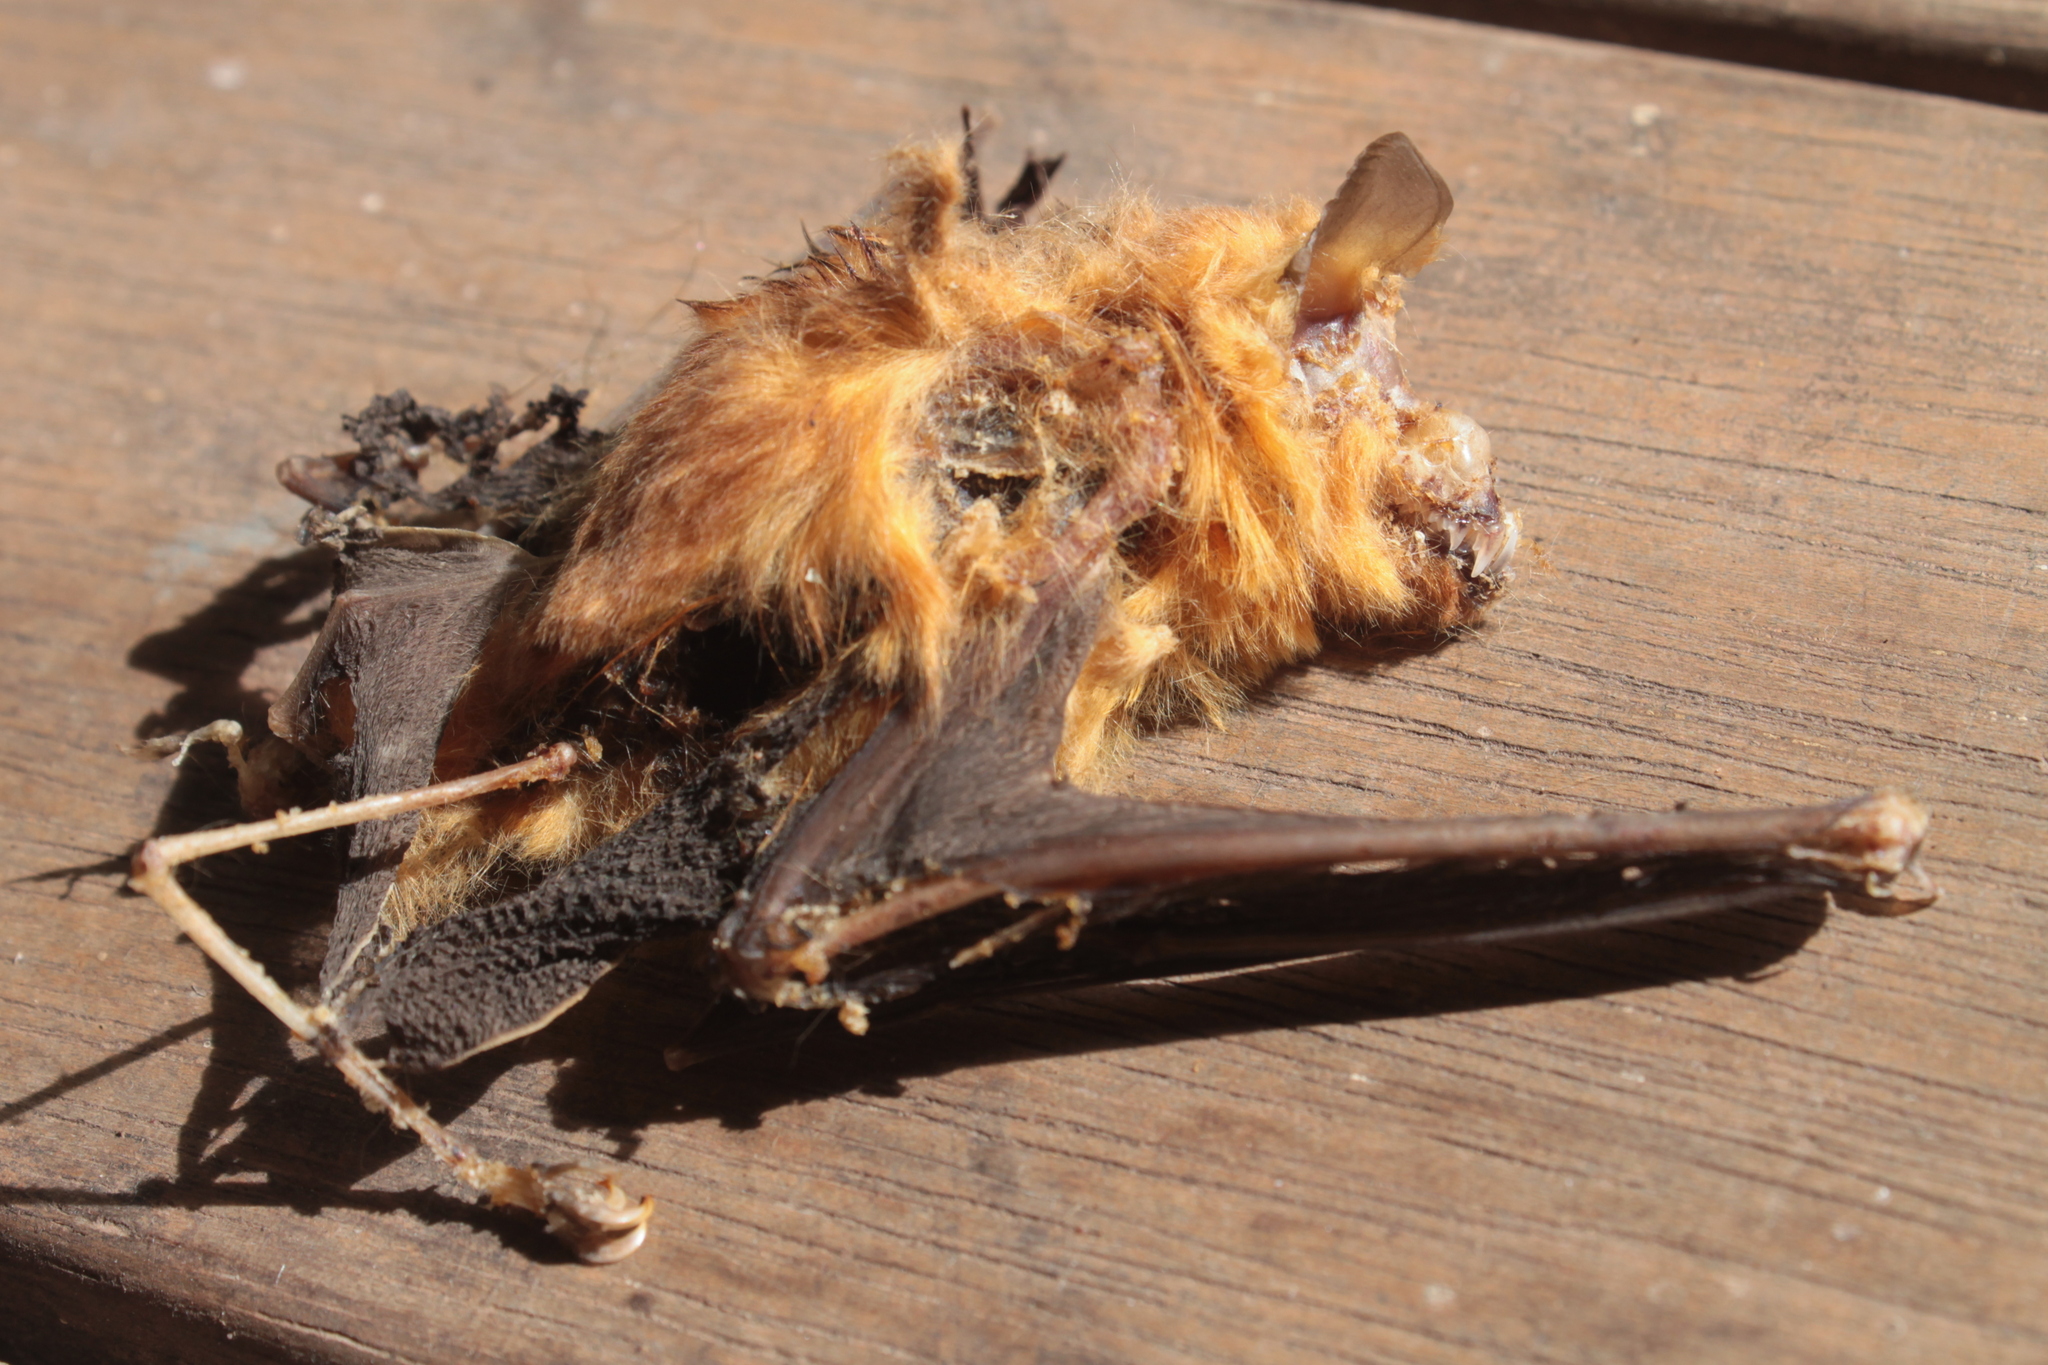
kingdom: Animalia
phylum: Chordata
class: Mammalia
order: Chiroptera
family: Rhinonycteridae
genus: Rhinonicteris
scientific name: Rhinonicteris aurantia
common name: Orange leaf-nosed bat
